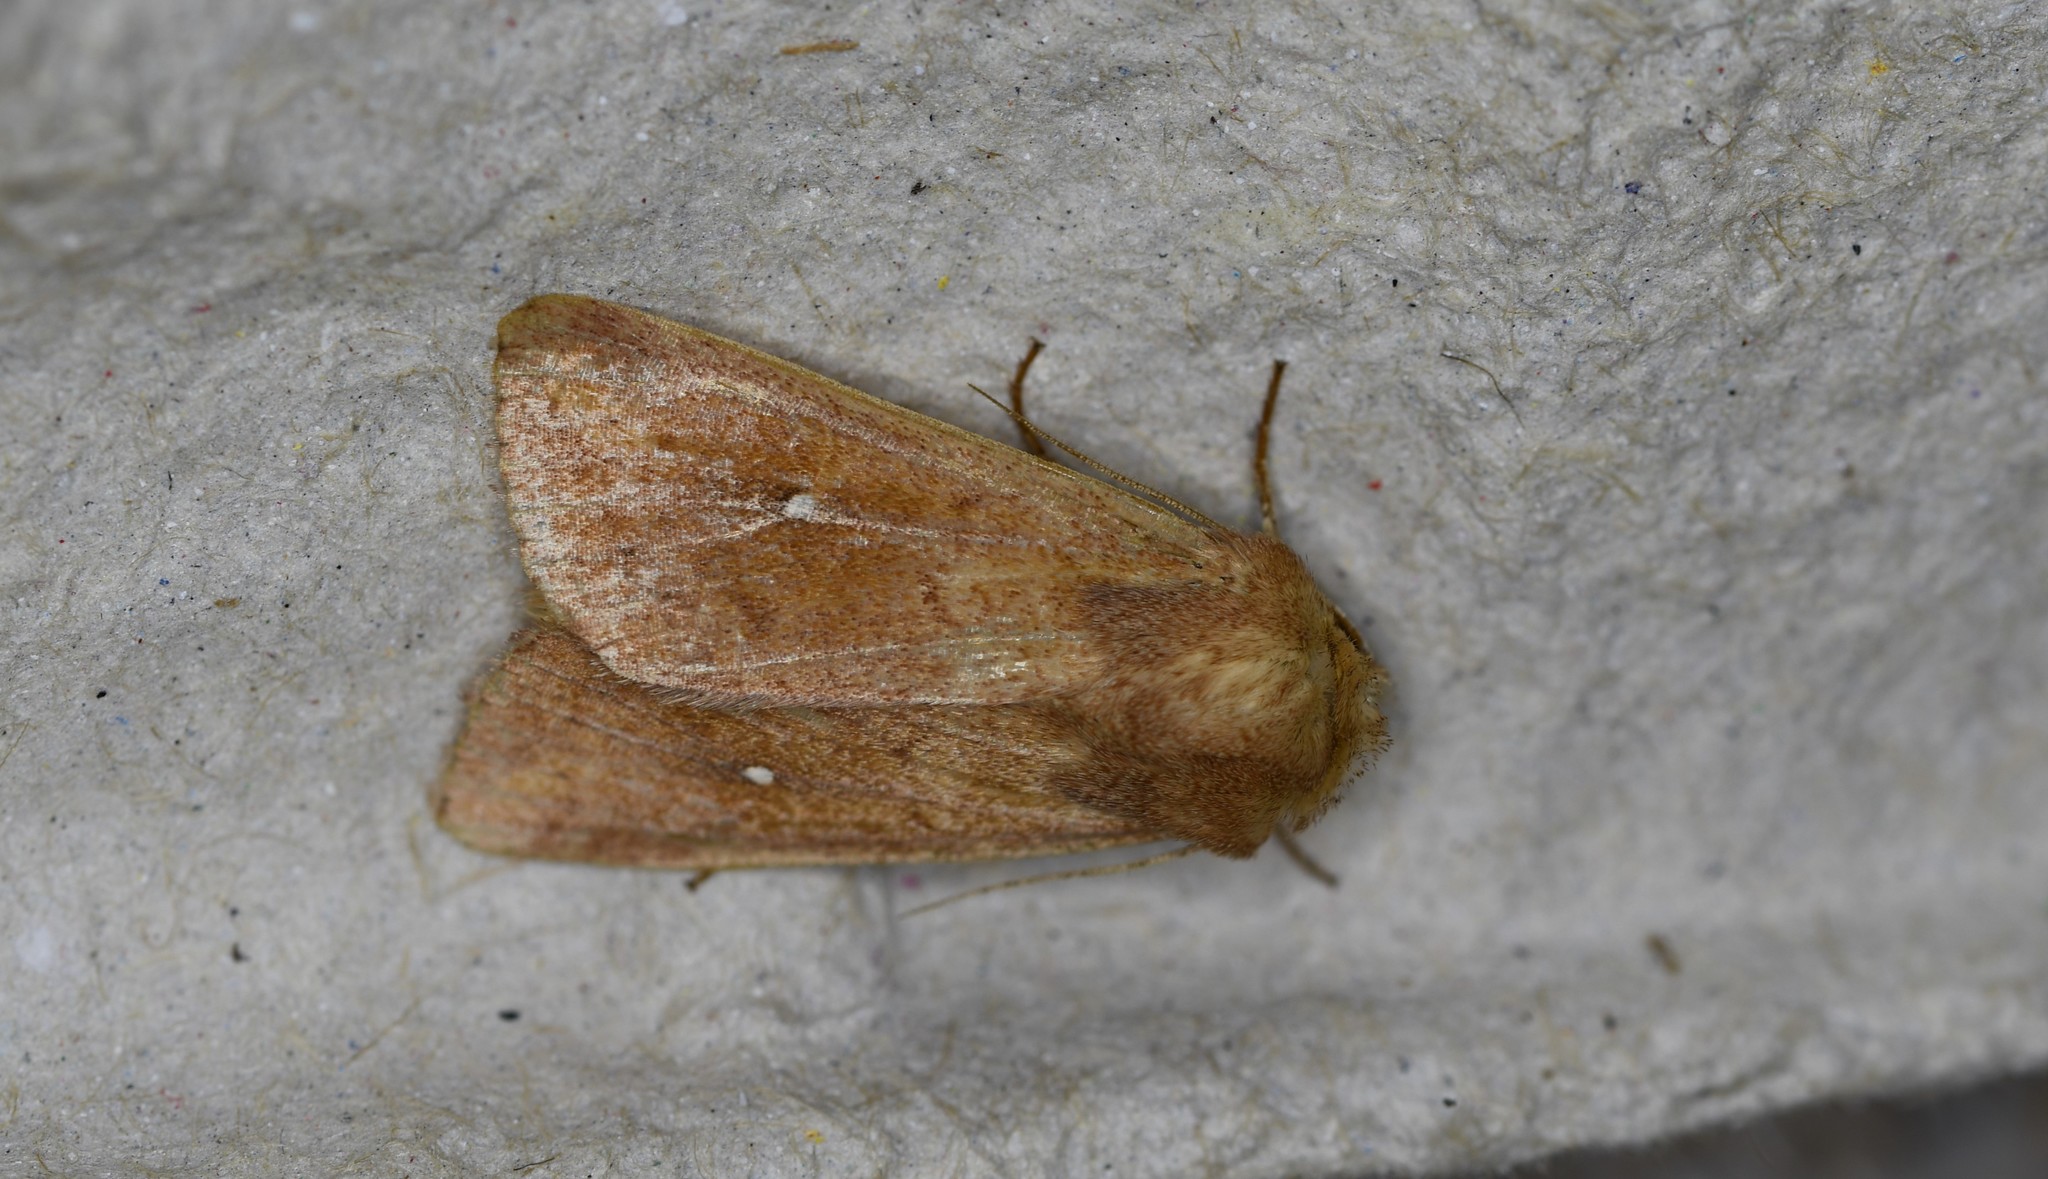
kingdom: Animalia
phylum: Arthropoda
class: Insecta
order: Lepidoptera
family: Noctuidae
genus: Mythimna
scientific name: Mythimna albipuncta
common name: White-point
